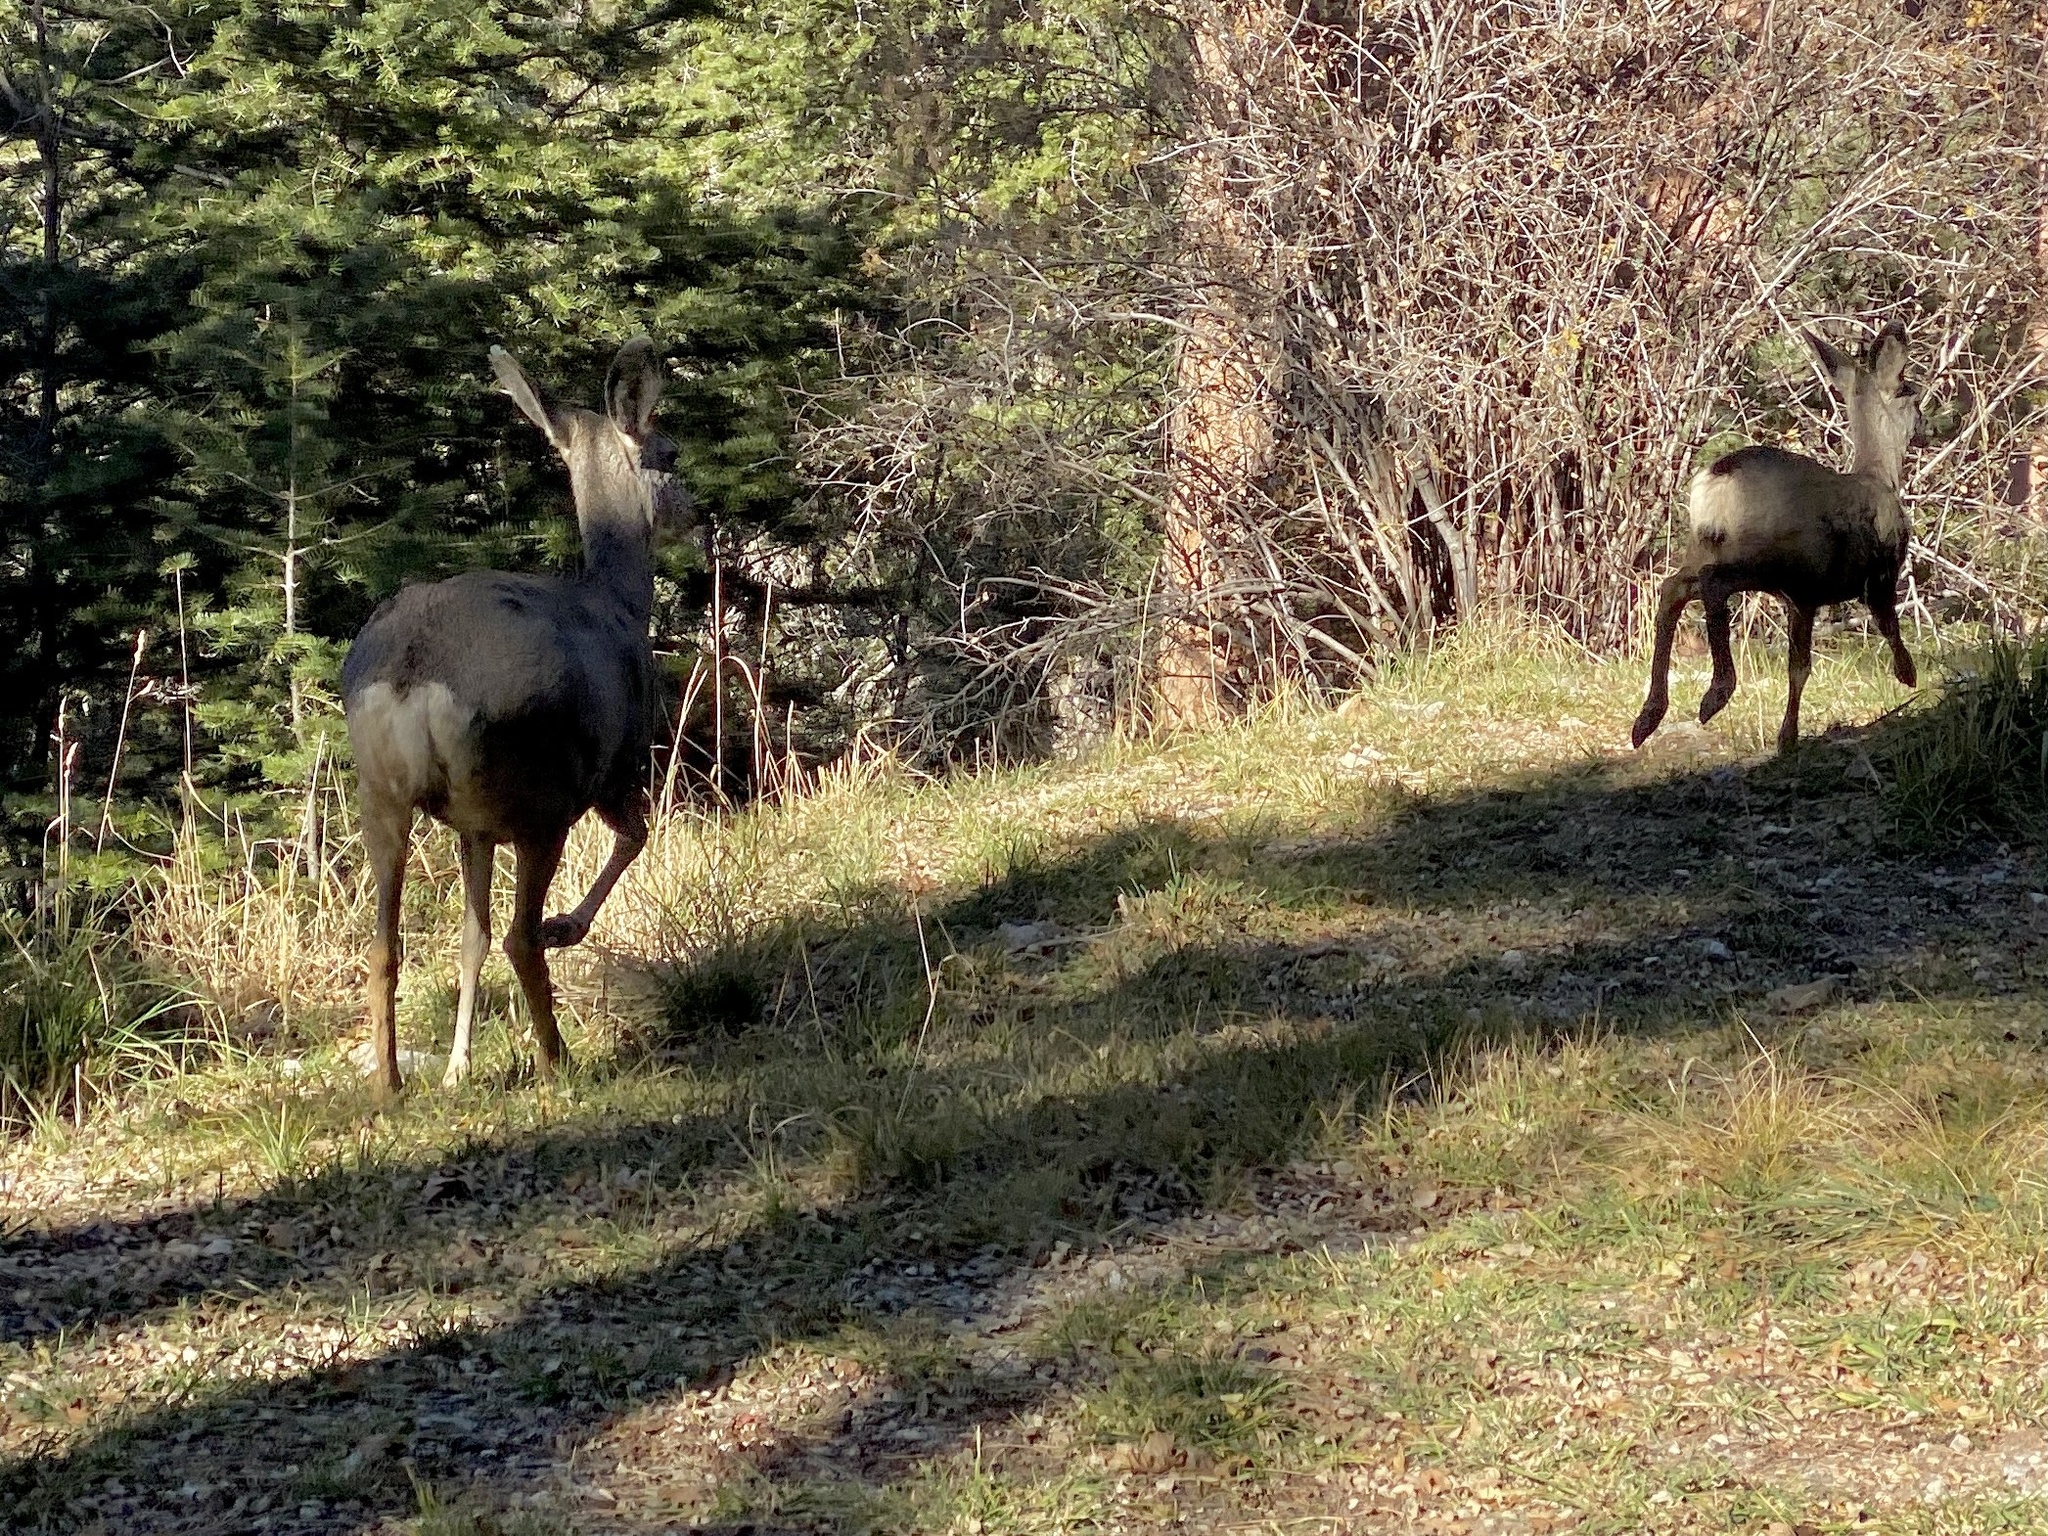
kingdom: Animalia
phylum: Chordata
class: Mammalia
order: Artiodactyla
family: Cervidae
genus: Odocoileus
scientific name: Odocoileus hemionus
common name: Mule deer
